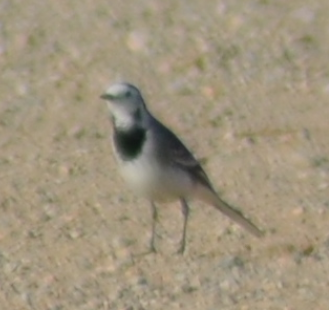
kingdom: Animalia
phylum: Chordata
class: Aves
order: Passeriformes
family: Motacillidae
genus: Motacilla
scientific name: Motacilla alba
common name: White wagtail
